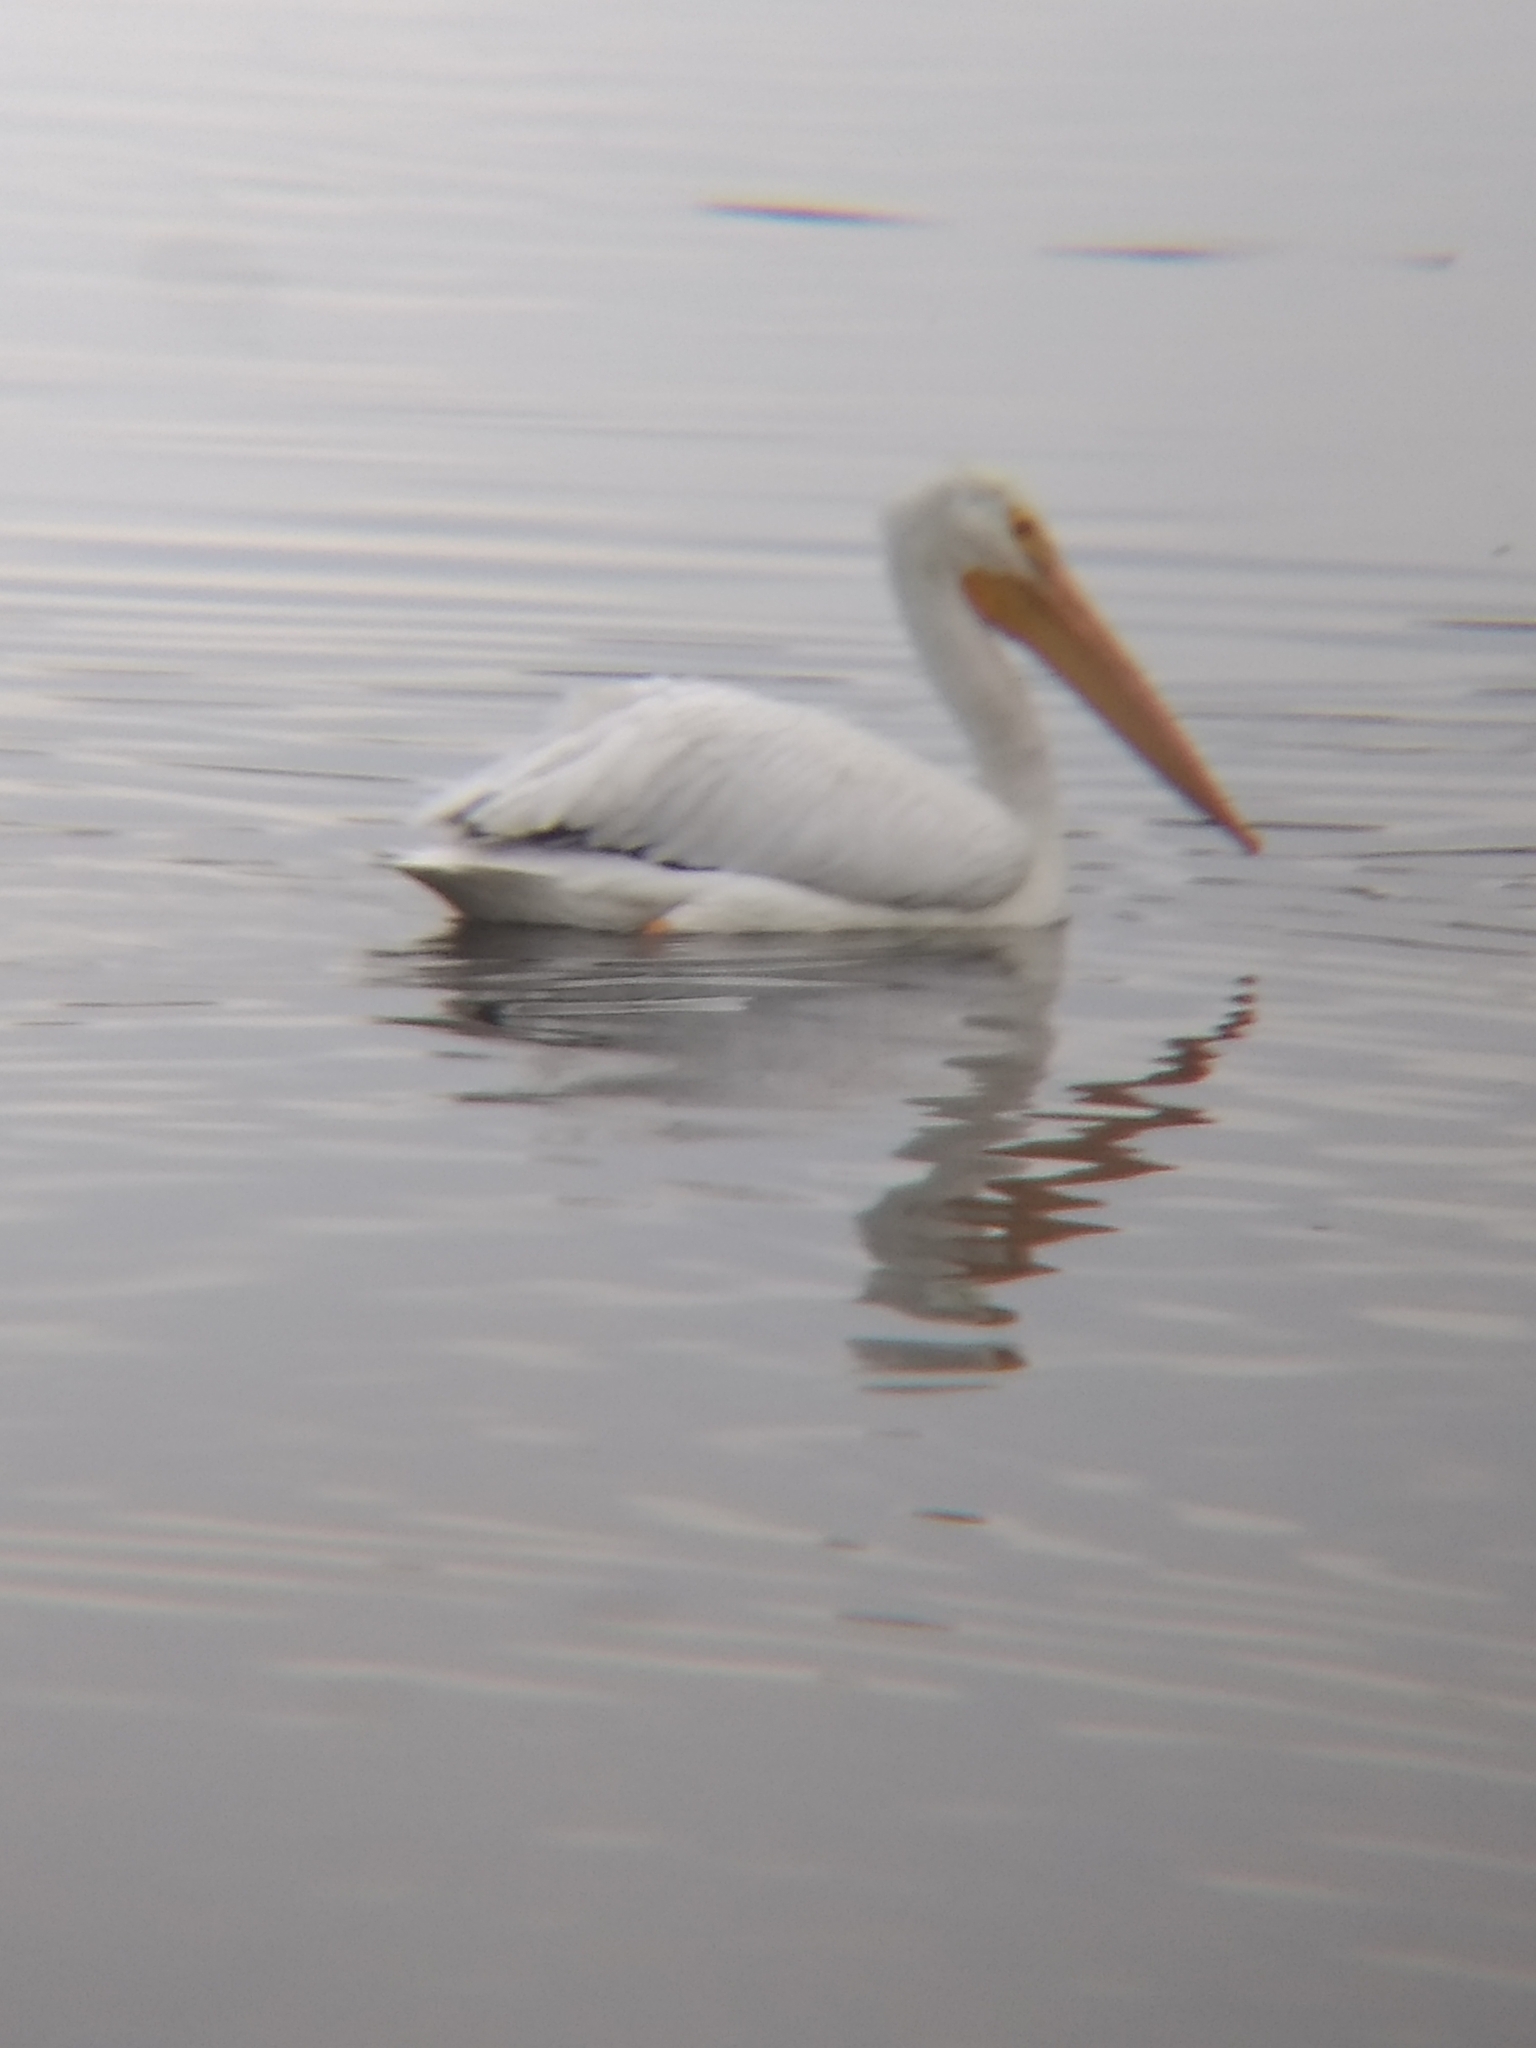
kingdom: Animalia
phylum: Chordata
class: Aves
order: Pelecaniformes
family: Pelecanidae
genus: Pelecanus
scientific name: Pelecanus erythrorhynchos
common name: American white pelican
